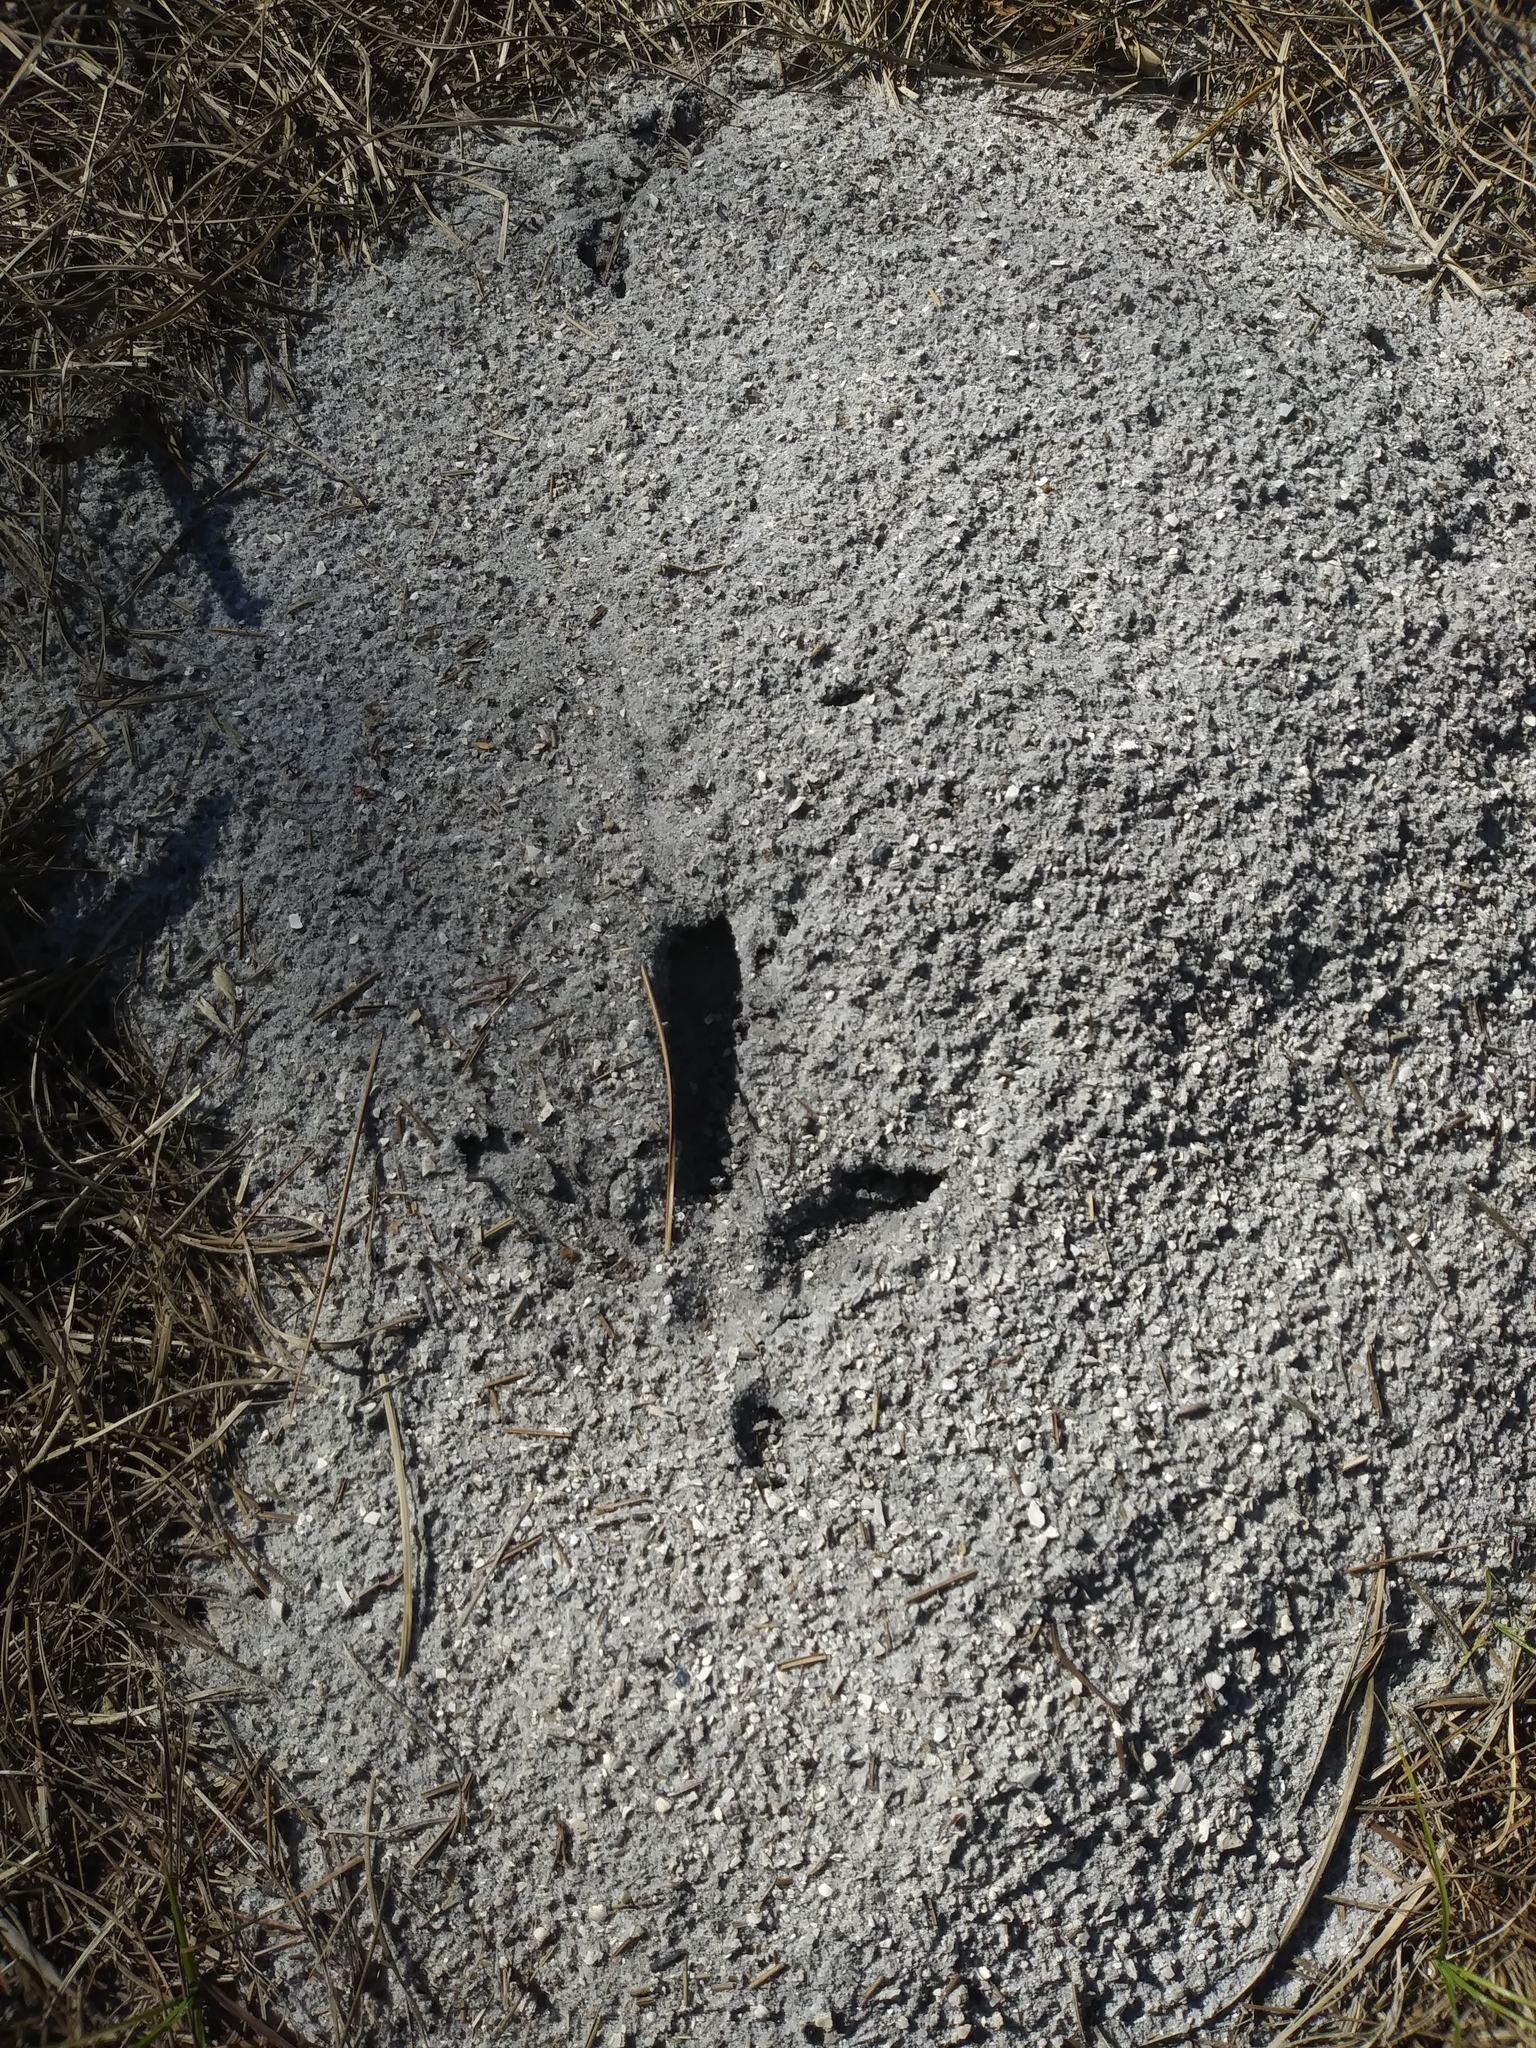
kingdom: Animalia
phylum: Chordata
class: Aves
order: Galliformes
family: Phasianidae
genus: Meleagris
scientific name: Meleagris gallopavo
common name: Wild turkey
